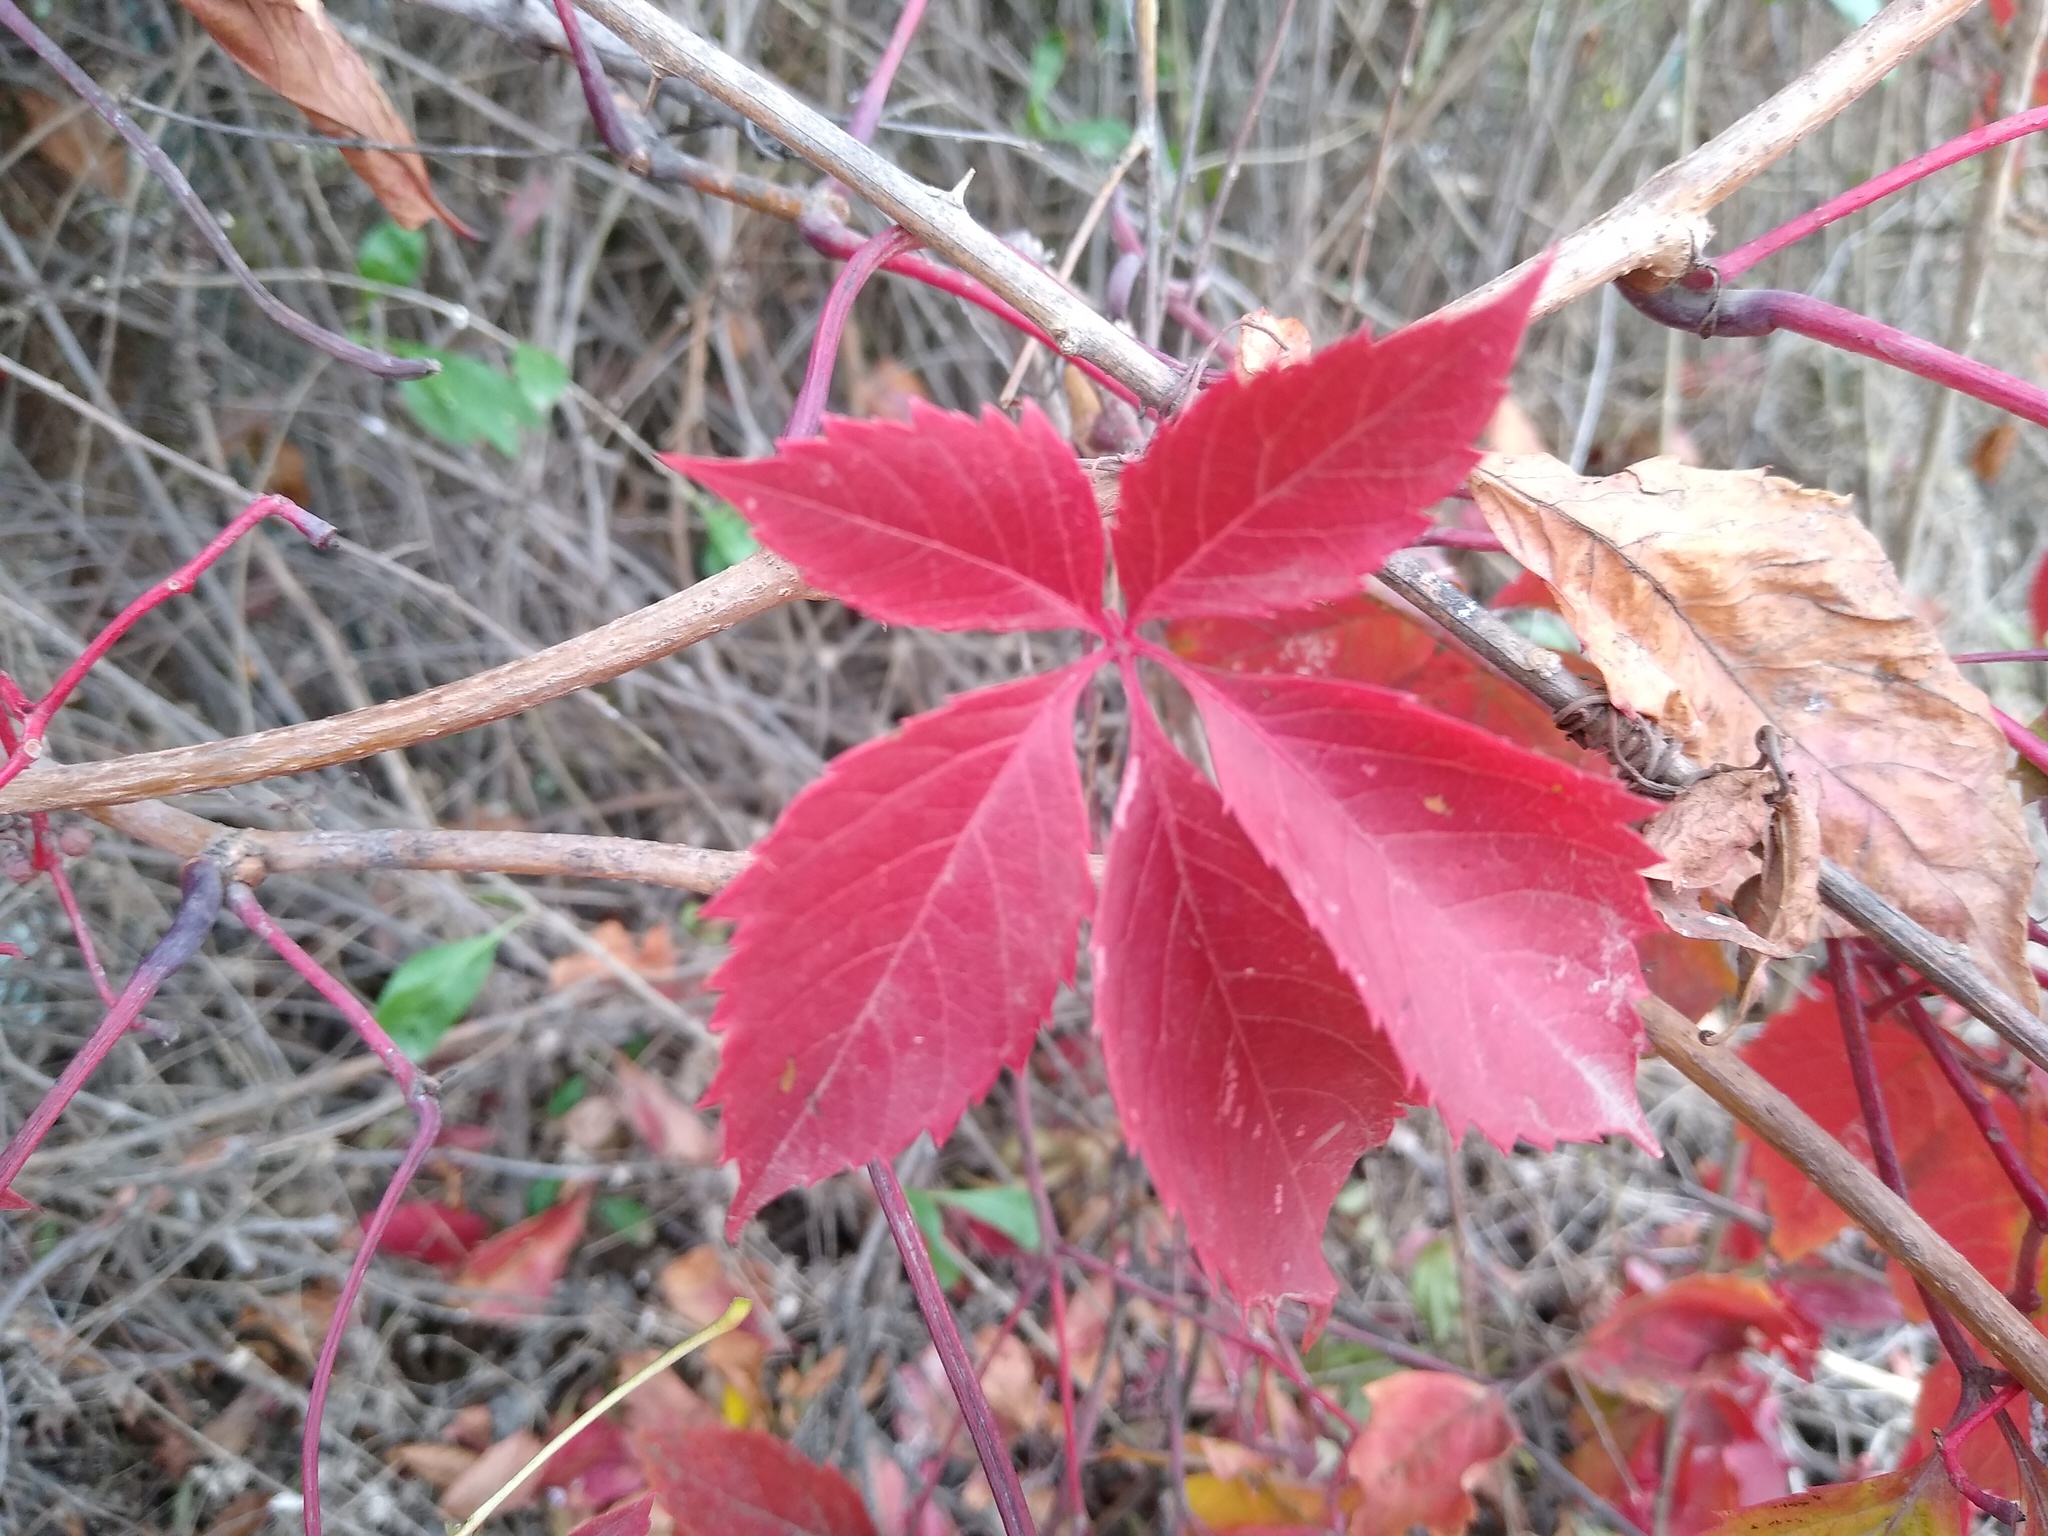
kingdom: Plantae
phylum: Tracheophyta
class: Magnoliopsida
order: Vitales
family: Vitaceae
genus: Parthenocissus
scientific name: Parthenocissus inserta
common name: False virginia-creeper
